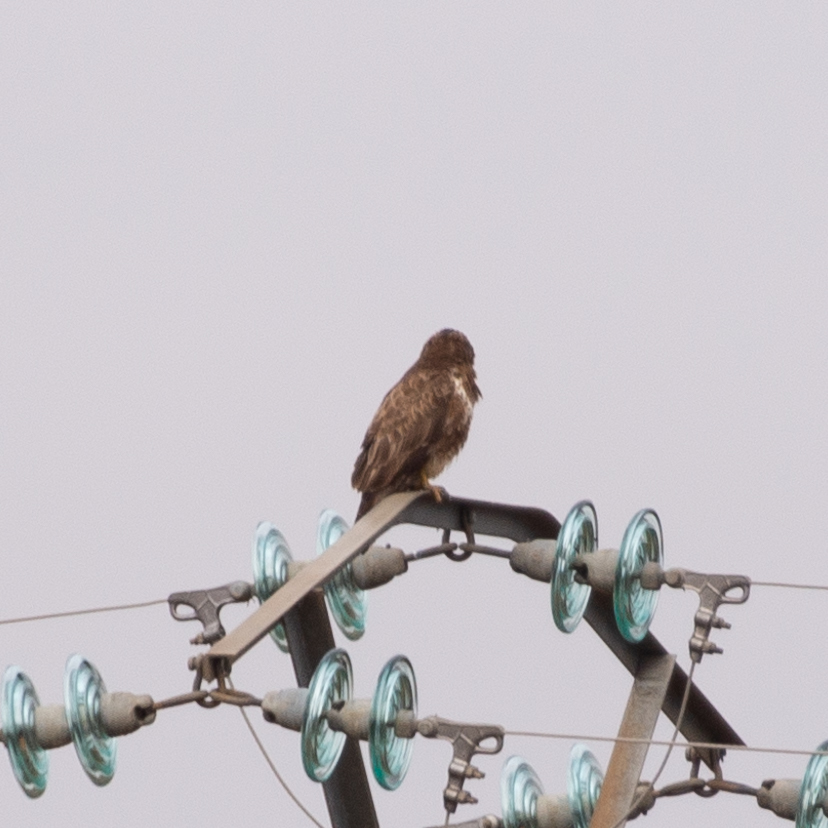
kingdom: Animalia
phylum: Chordata
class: Aves
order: Accipitriformes
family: Accipitridae
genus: Buteo
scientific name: Buteo buteo
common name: Common buzzard
